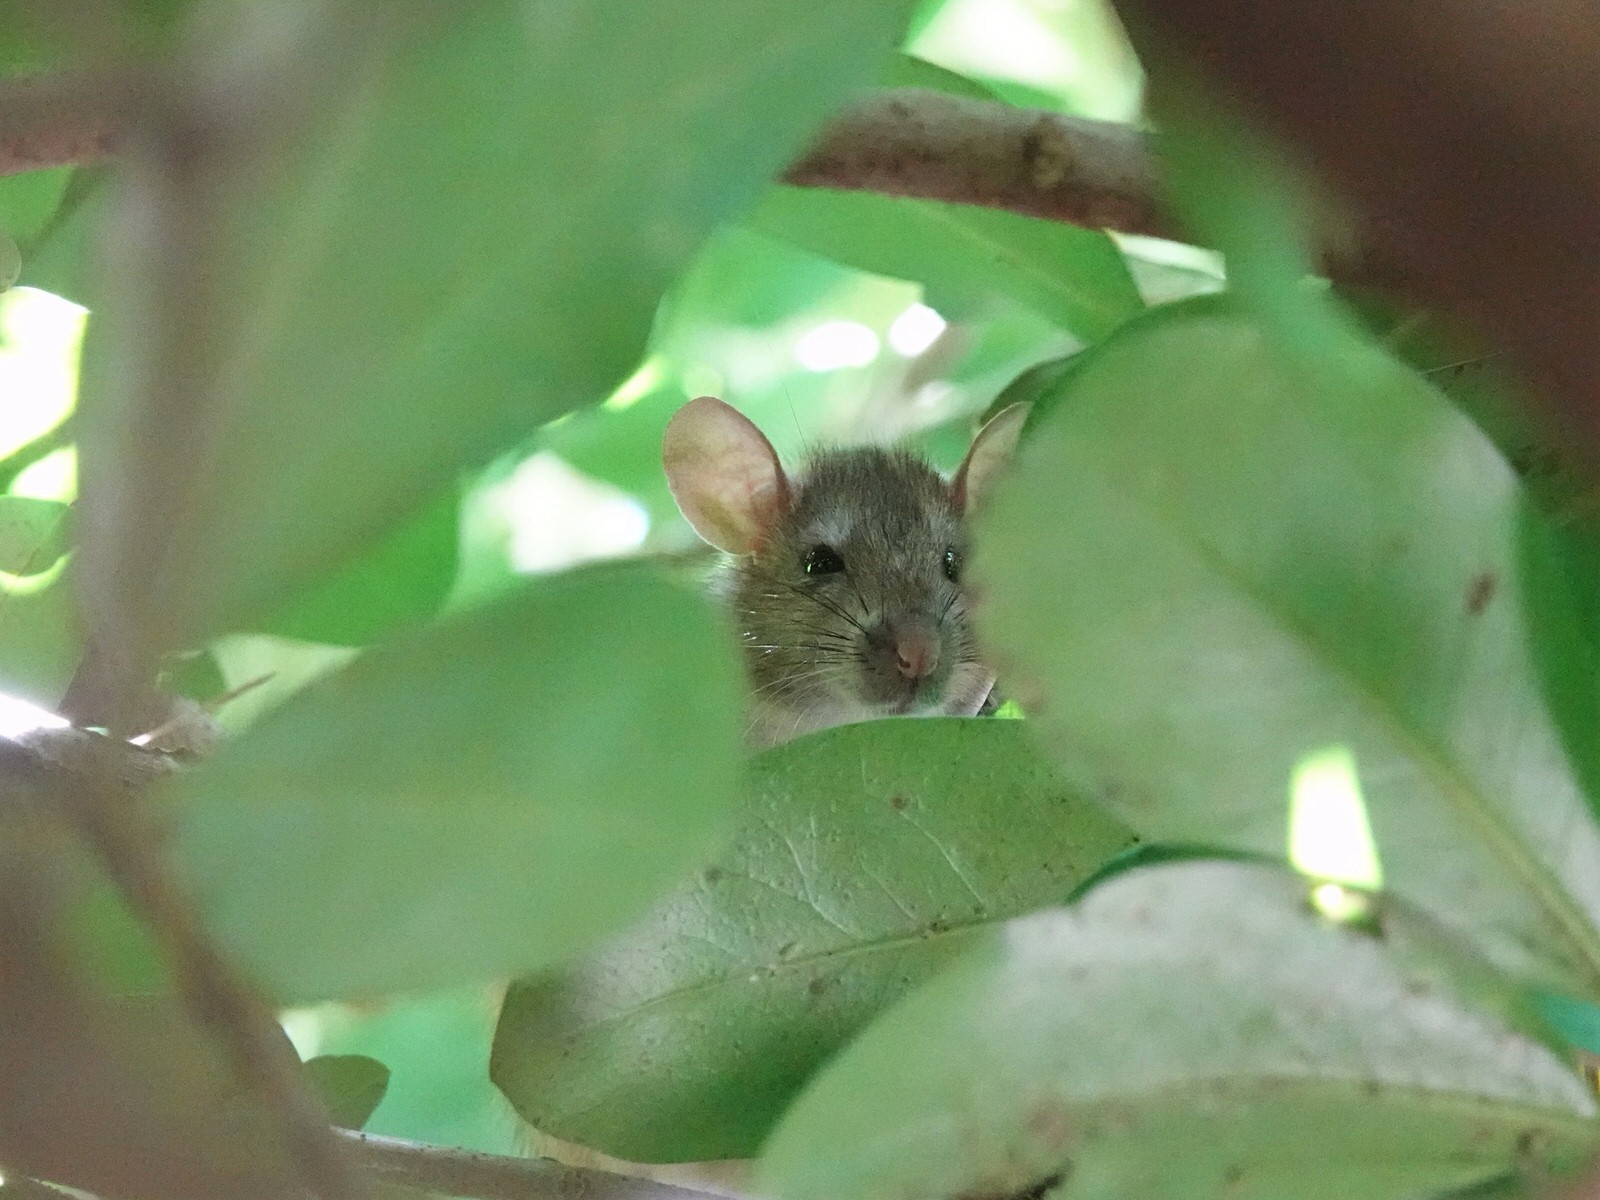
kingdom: Animalia
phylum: Chordata
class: Mammalia
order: Rodentia
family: Muridae
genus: Rattus
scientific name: Rattus rattus
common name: Black rat
